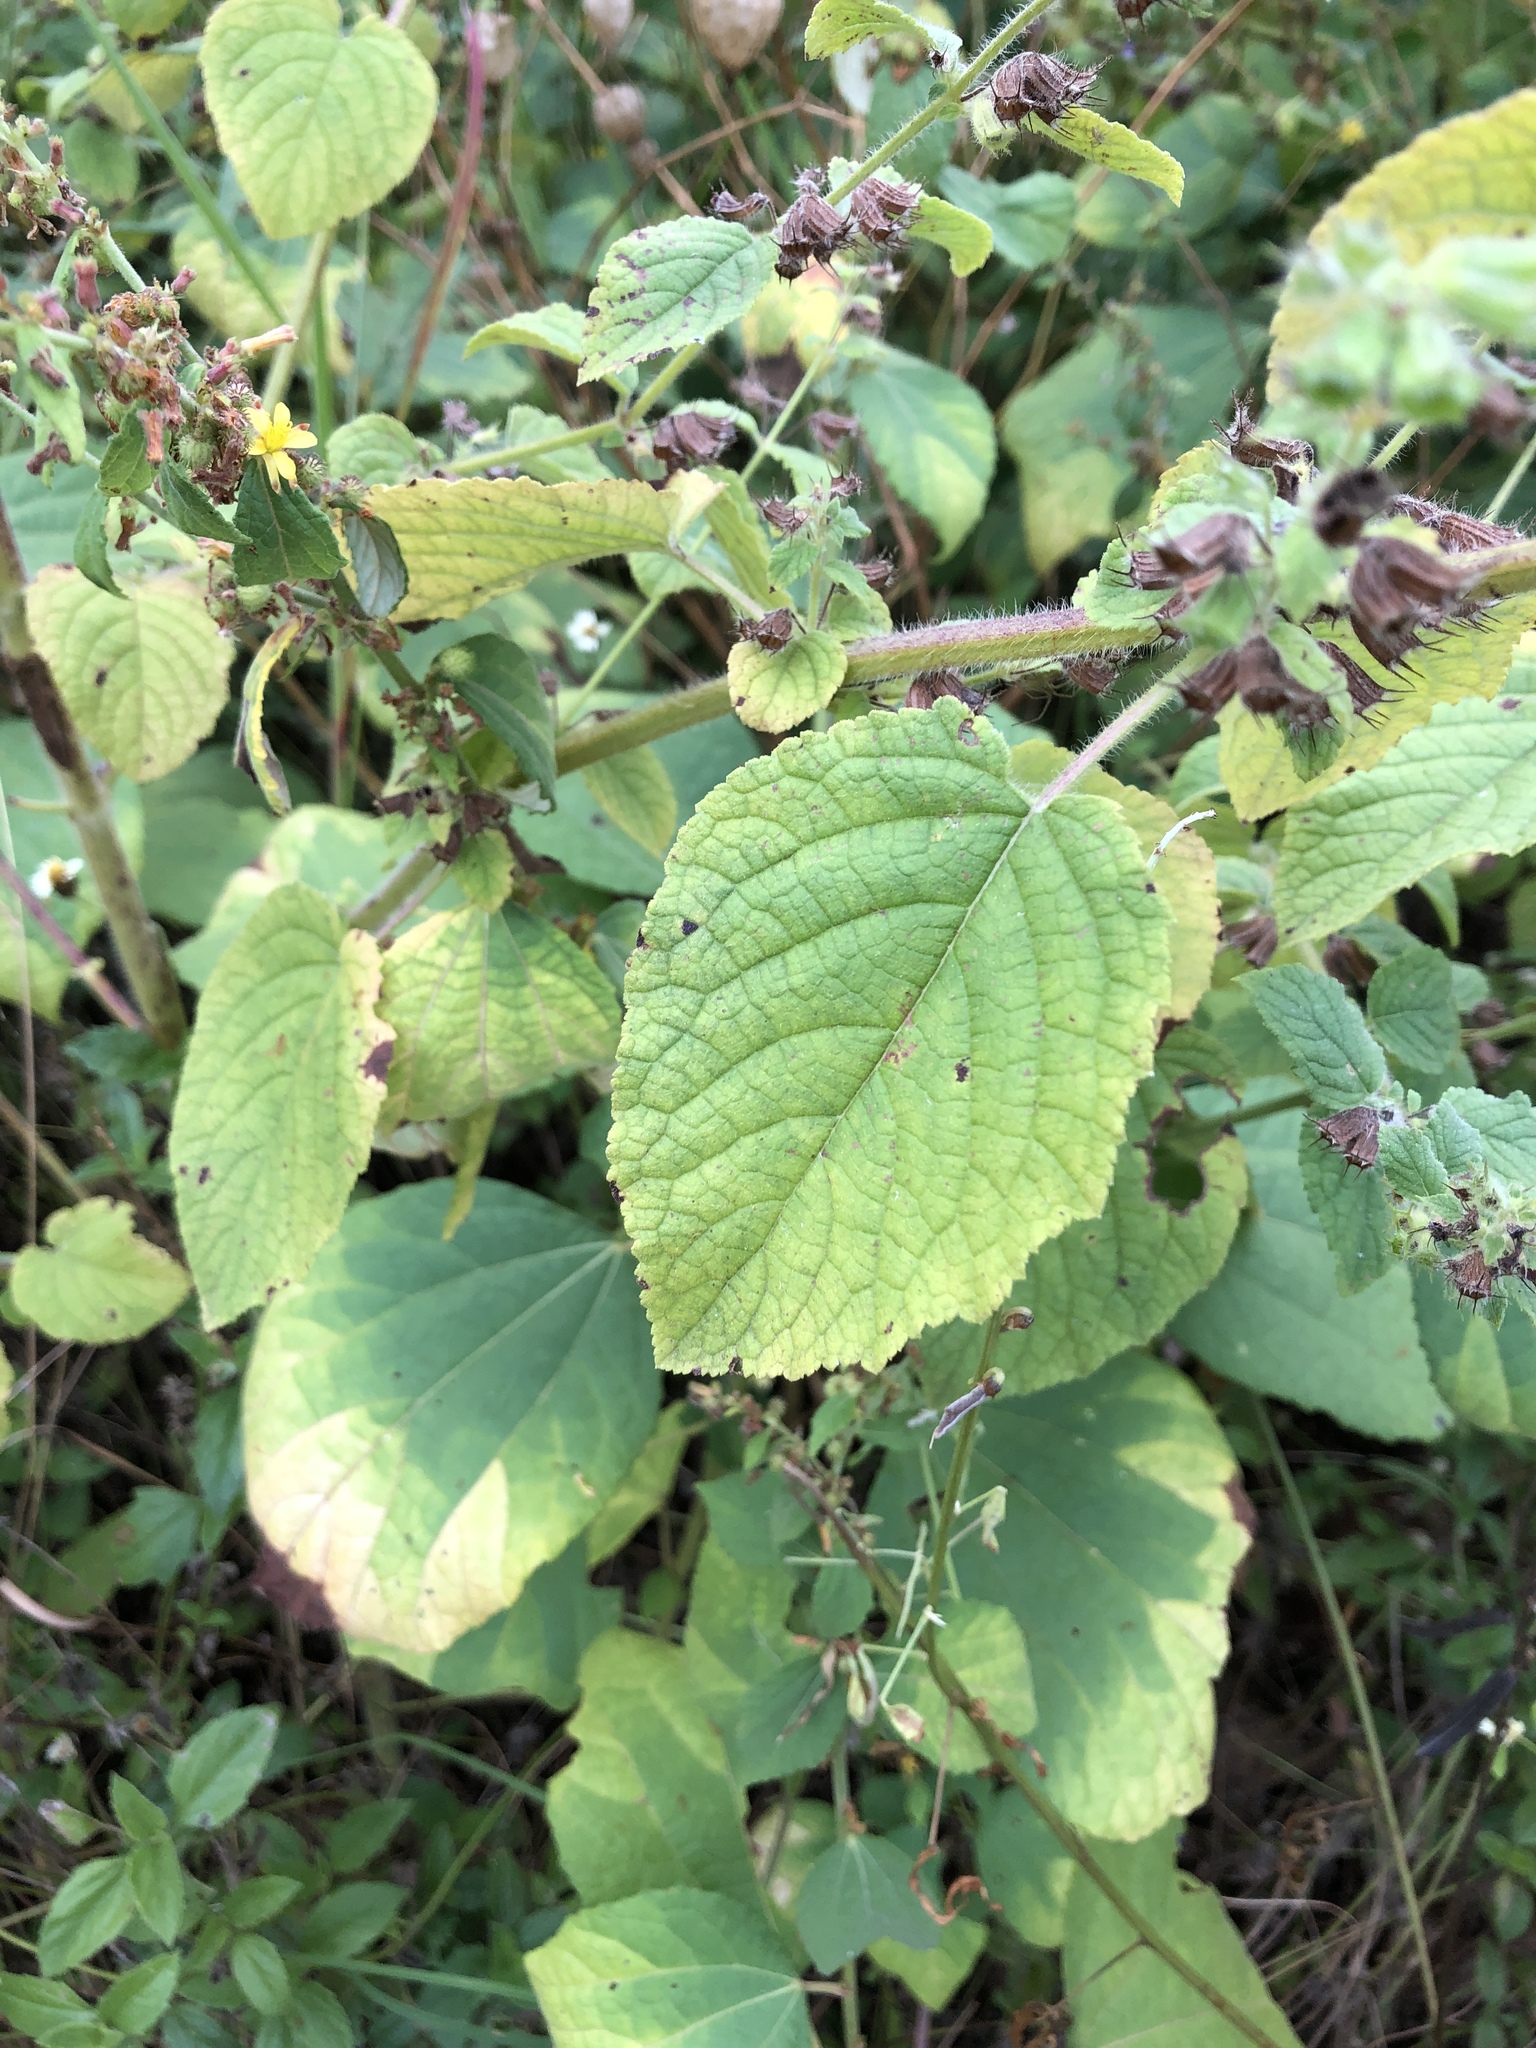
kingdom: Plantae
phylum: Tracheophyta
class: Magnoliopsida
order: Lamiales
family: Lamiaceae
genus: Mesosphaerum
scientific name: Mesosphaerum suaveolens
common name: Pignut
